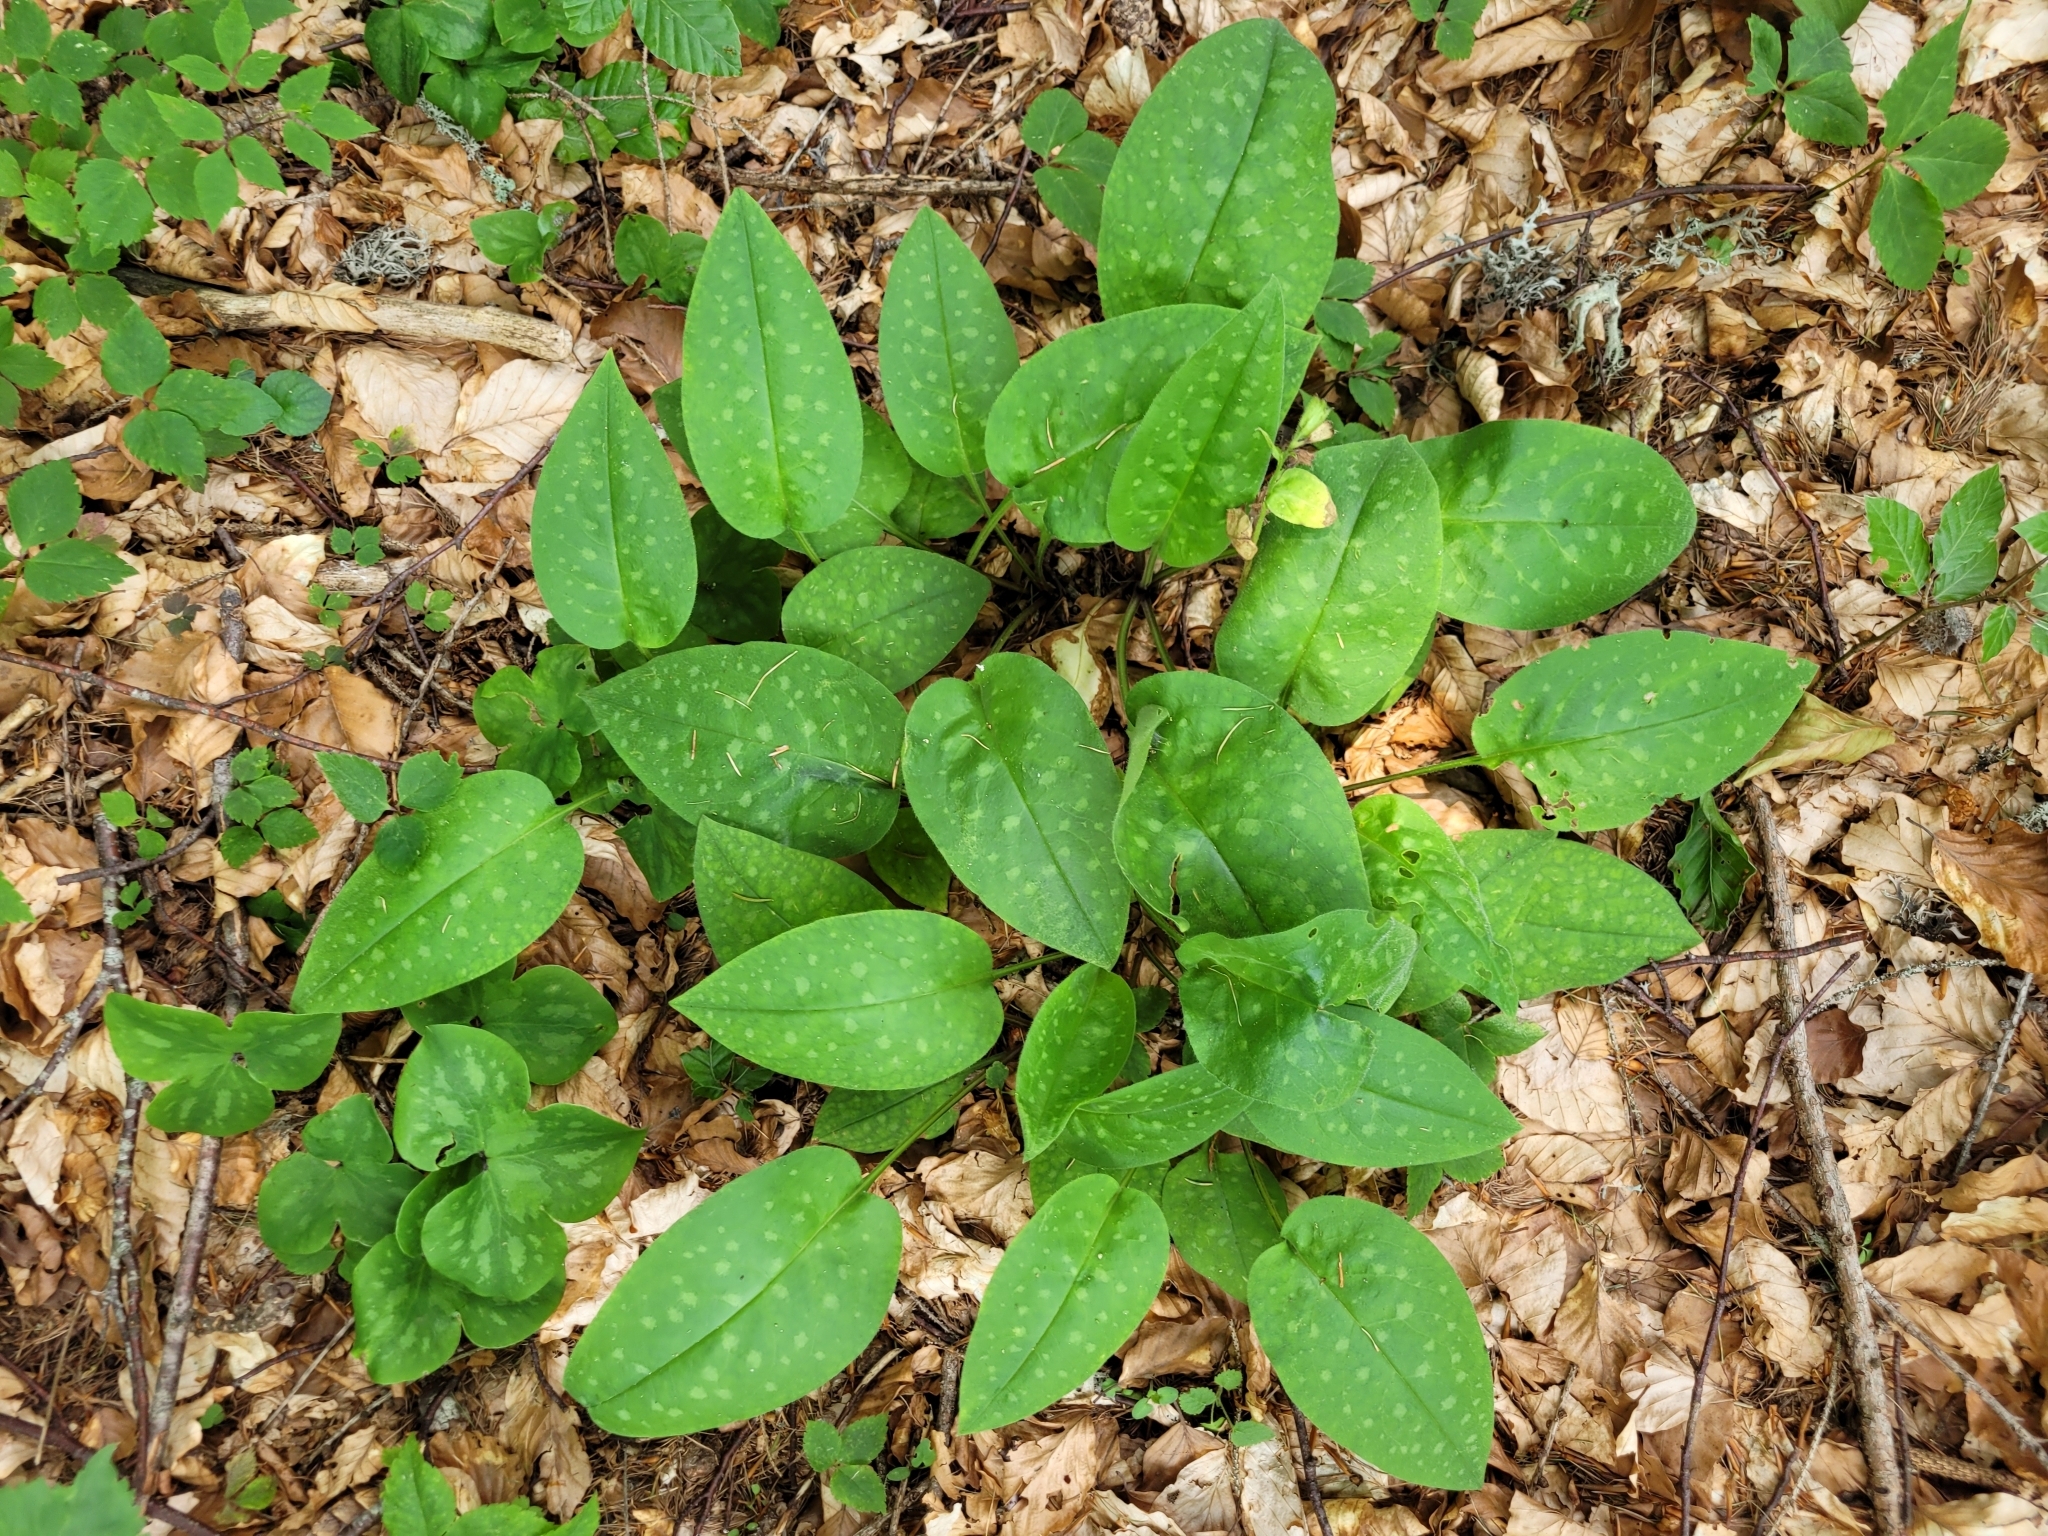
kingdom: Plantae
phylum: Tracheophyta
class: Magnoliopsida
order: Boraginales
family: Boraginaceae
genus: Pulmonaria
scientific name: Pulmonaria officinalis
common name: Lungwort
